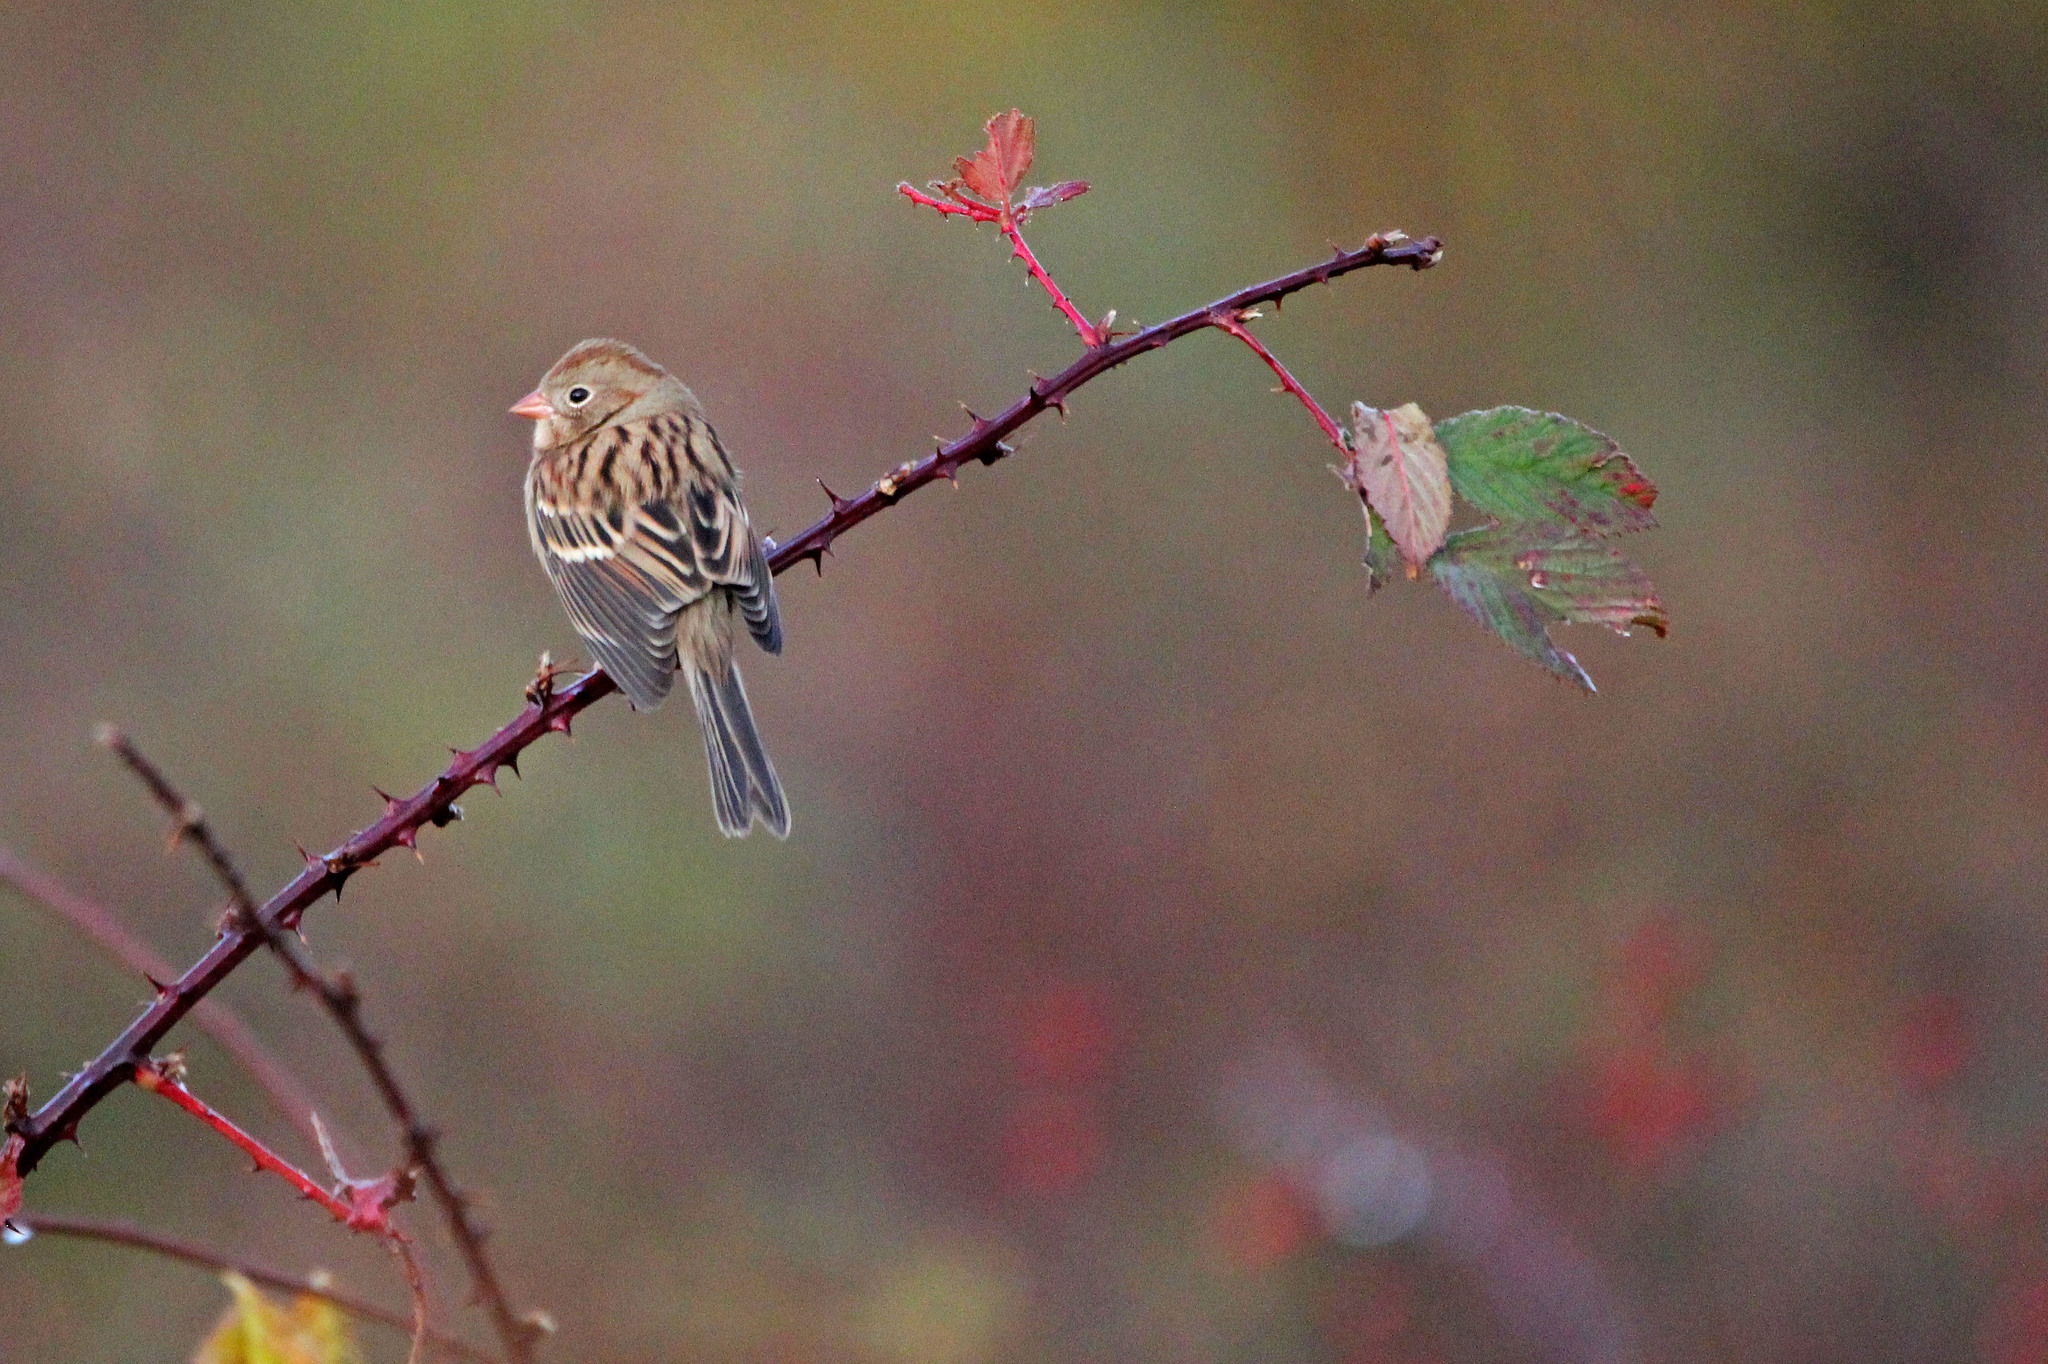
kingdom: Animalia
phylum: Chordata
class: Aves
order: Passeriformes
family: Passerellidae
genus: Spizella
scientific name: Spizella pusilla
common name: Field sparrow
